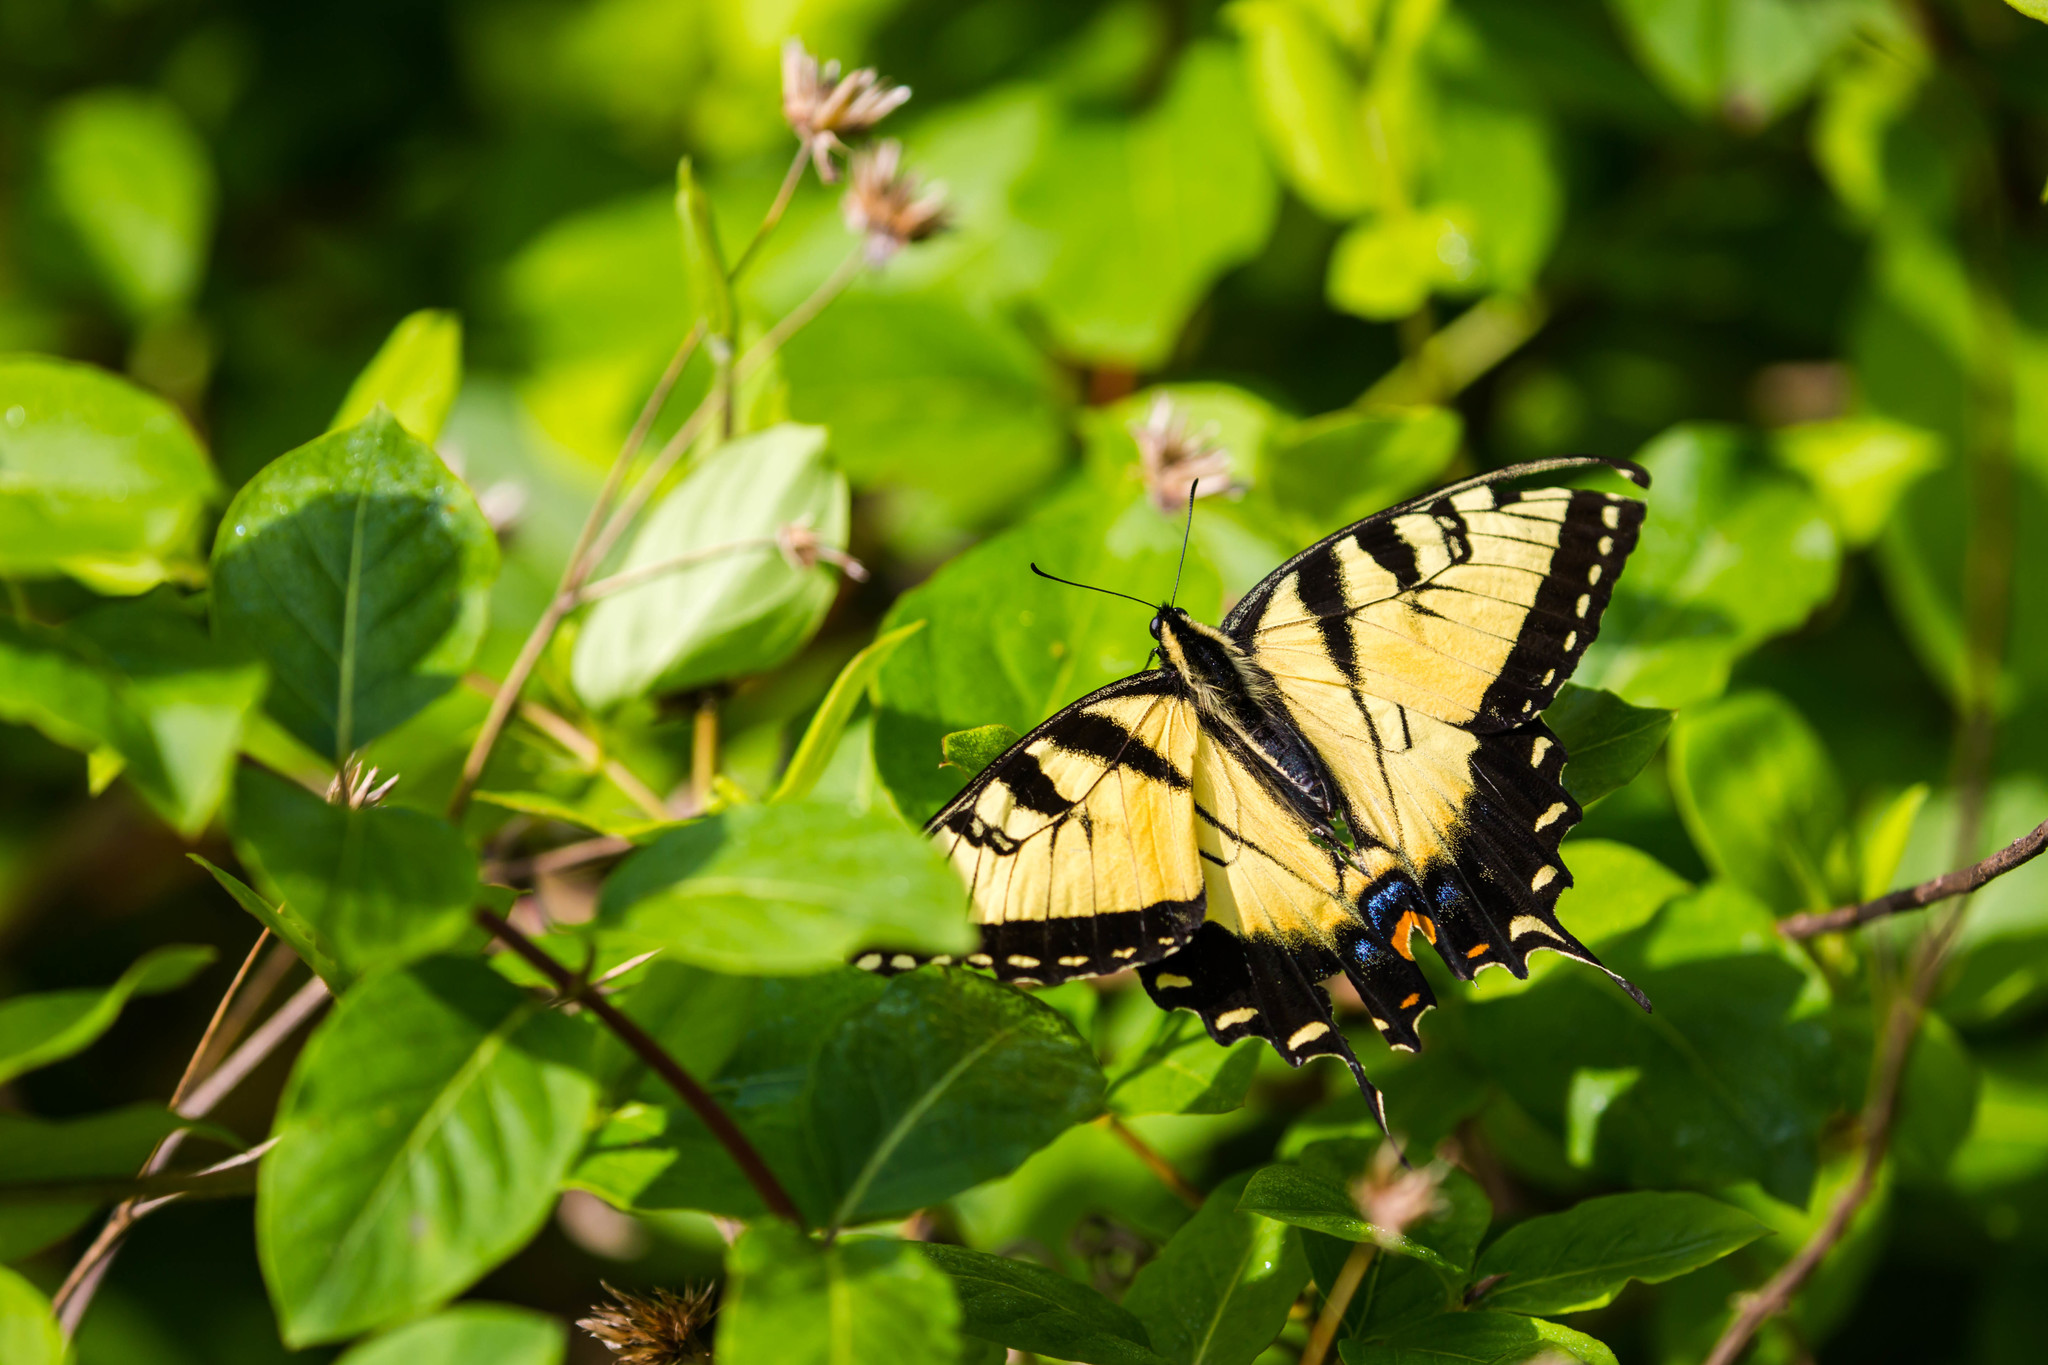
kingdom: Animalia
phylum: Arthropoda
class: Insecta
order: Lepidoptera
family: Papilionidae
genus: Papilio
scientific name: Papilio glaucus
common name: Tiger swallowtail
